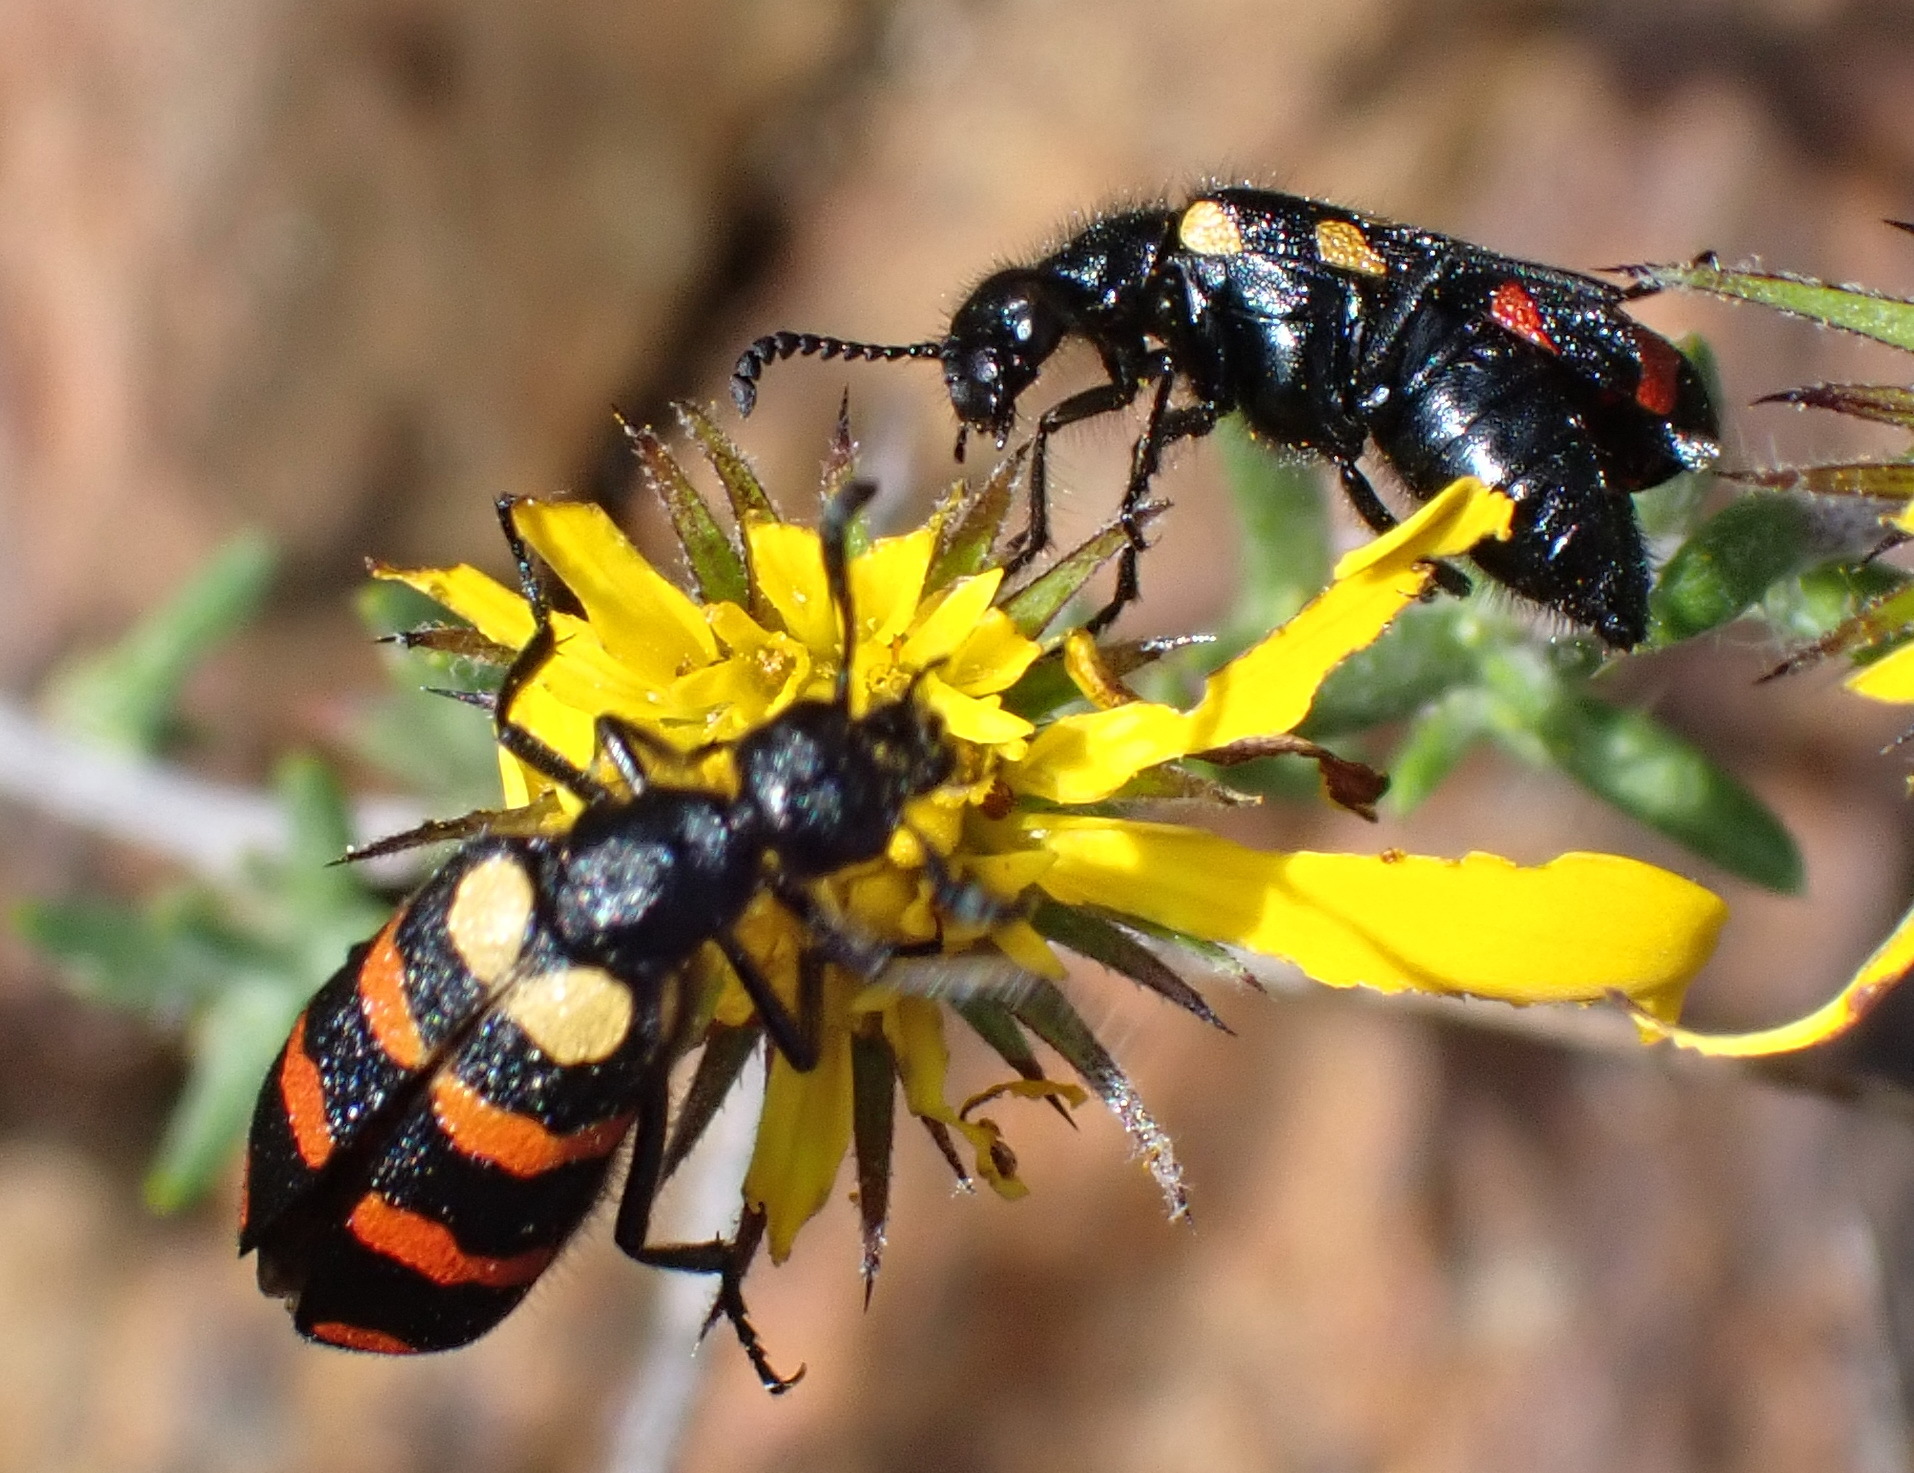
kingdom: Animalia
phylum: Arthropoda
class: Insecta
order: Coleoptera
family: Meloidae
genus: Ceroctis
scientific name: Ceroctis gyllenhalli
